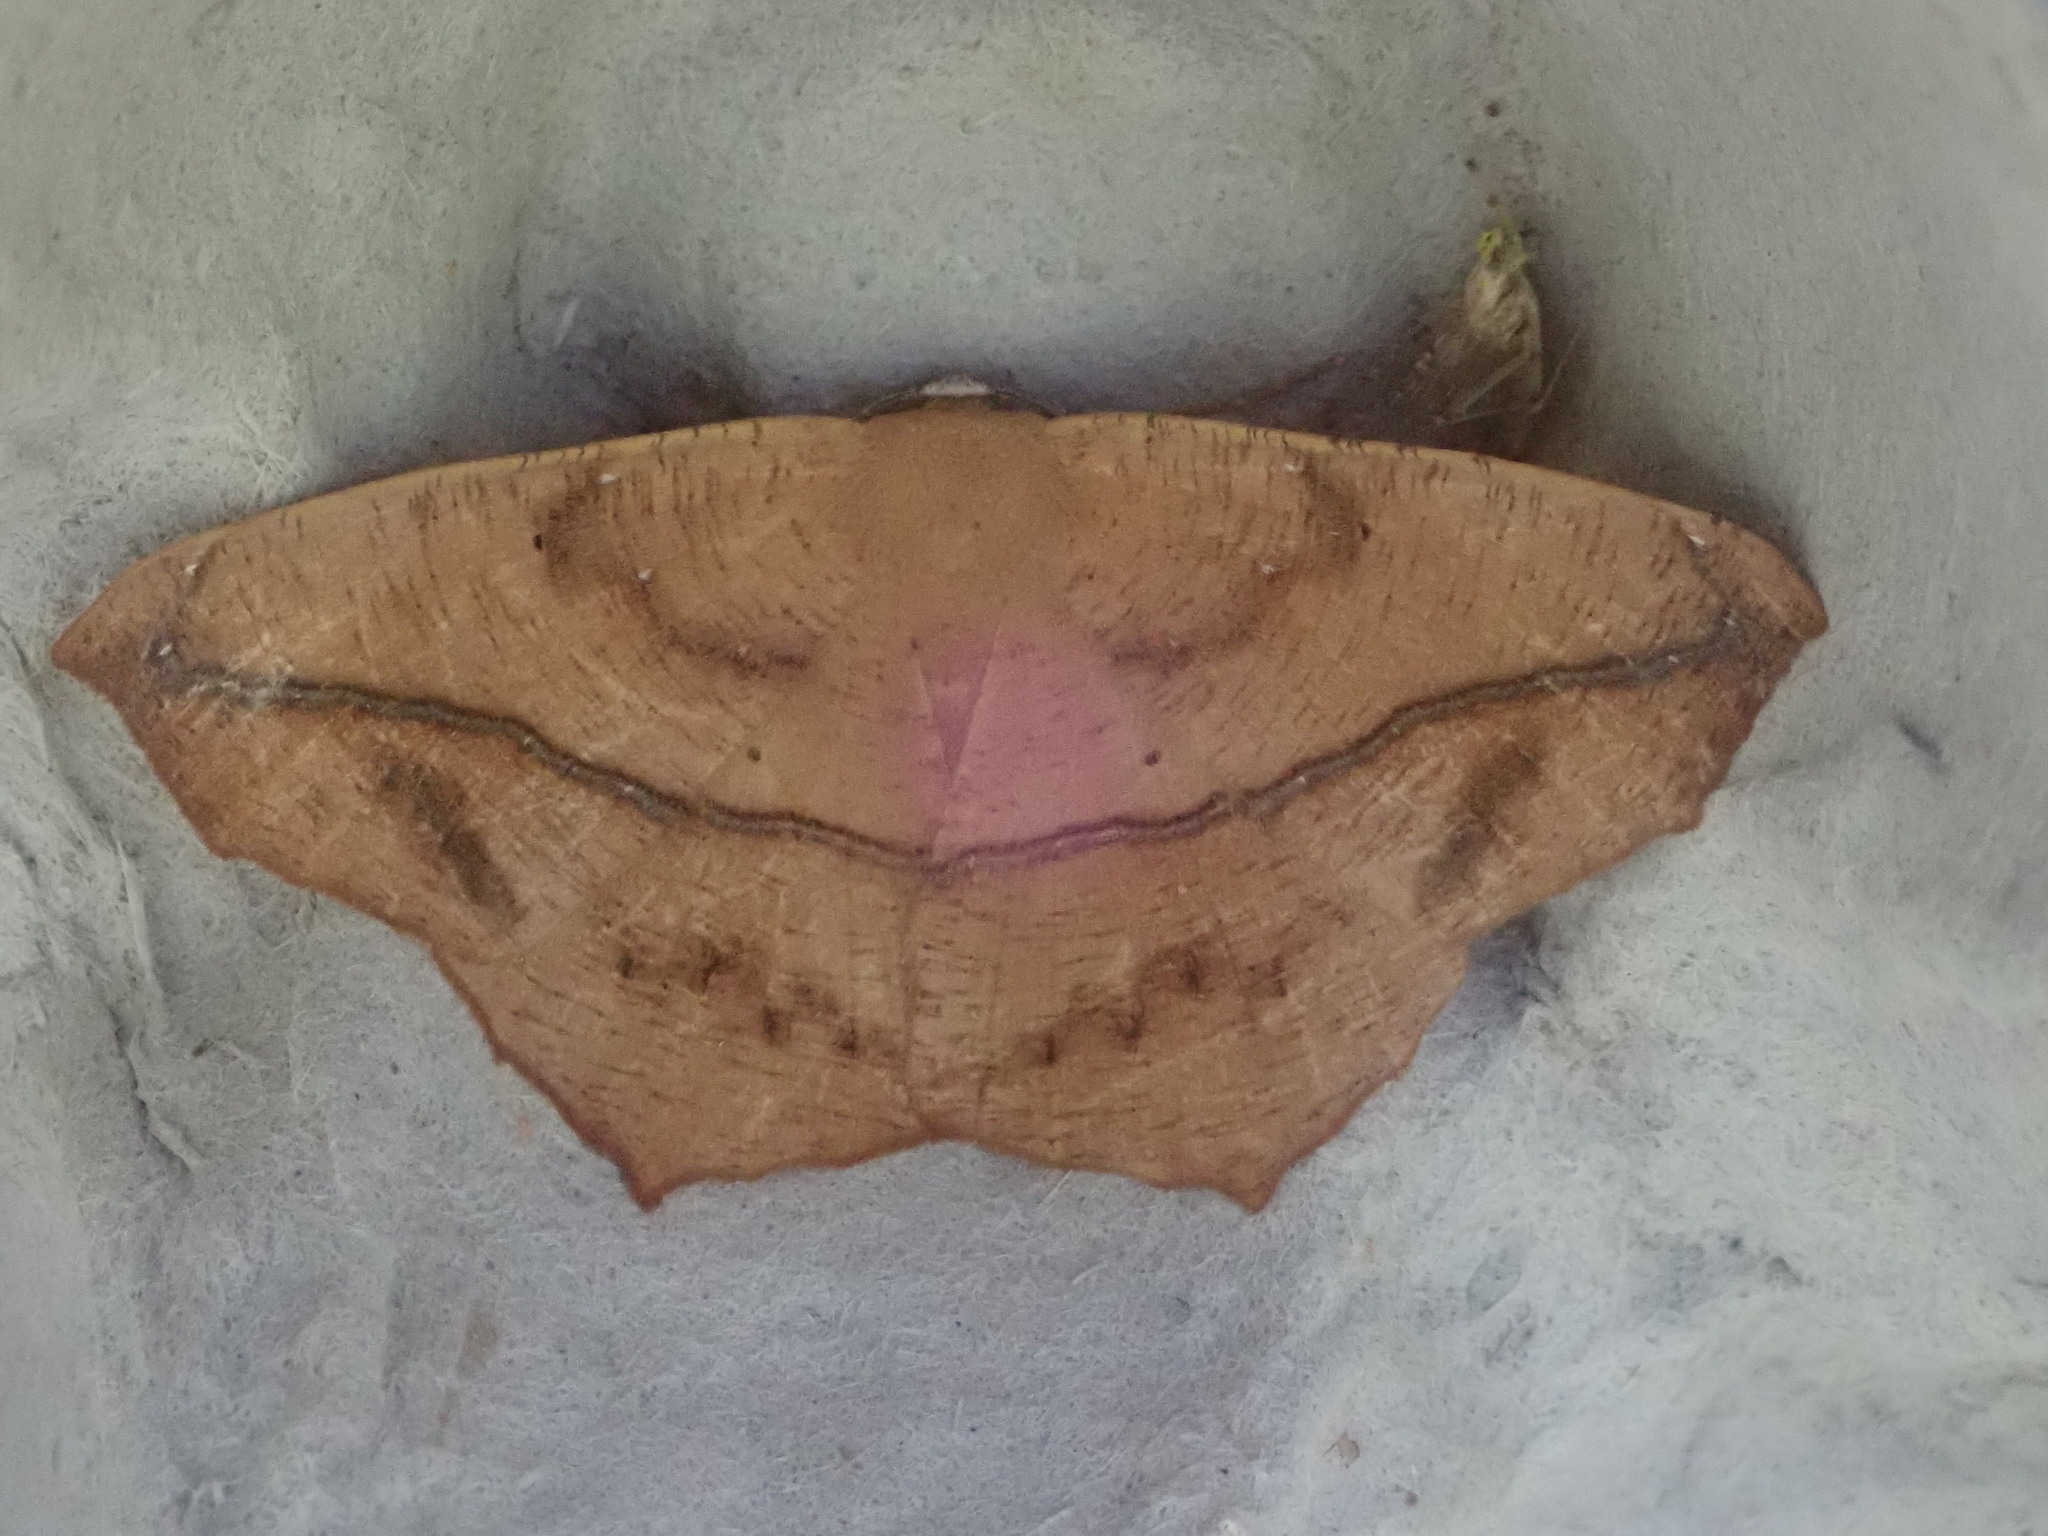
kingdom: Animalia
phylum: Arthropoda
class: Insecta
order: Lepidoptera
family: Geometridae
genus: Prochoerodes
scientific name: Prochoerodes lineola
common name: Large maple spanworm
